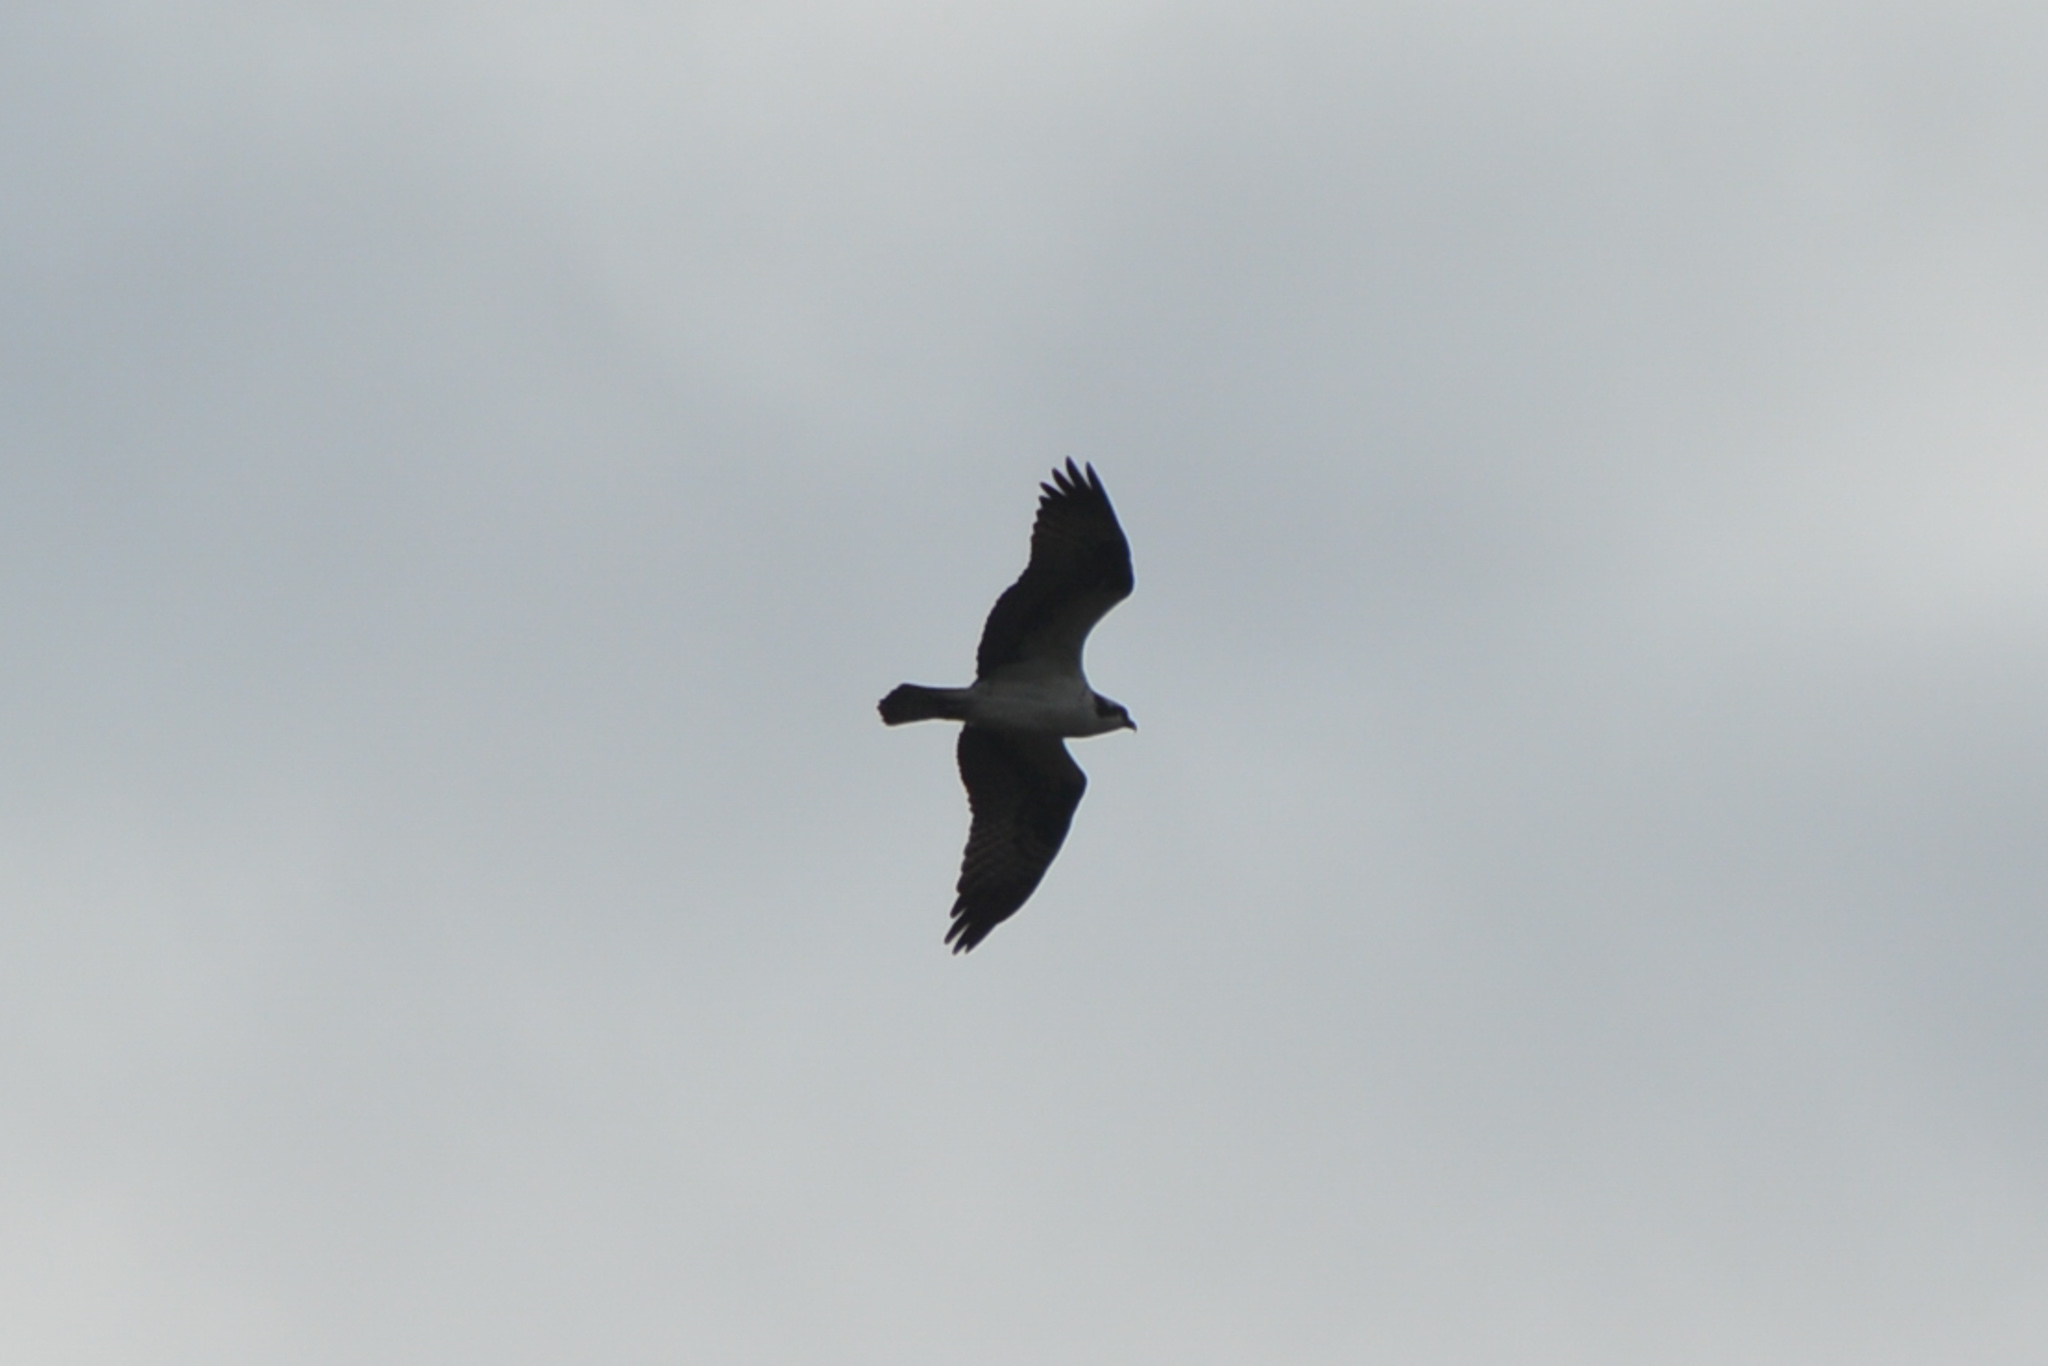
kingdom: Animalia
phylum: Chordata
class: Aves
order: Accipitriformes
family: Pandionidae
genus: Pandion
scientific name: Pandion haliaetus
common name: Osprey
